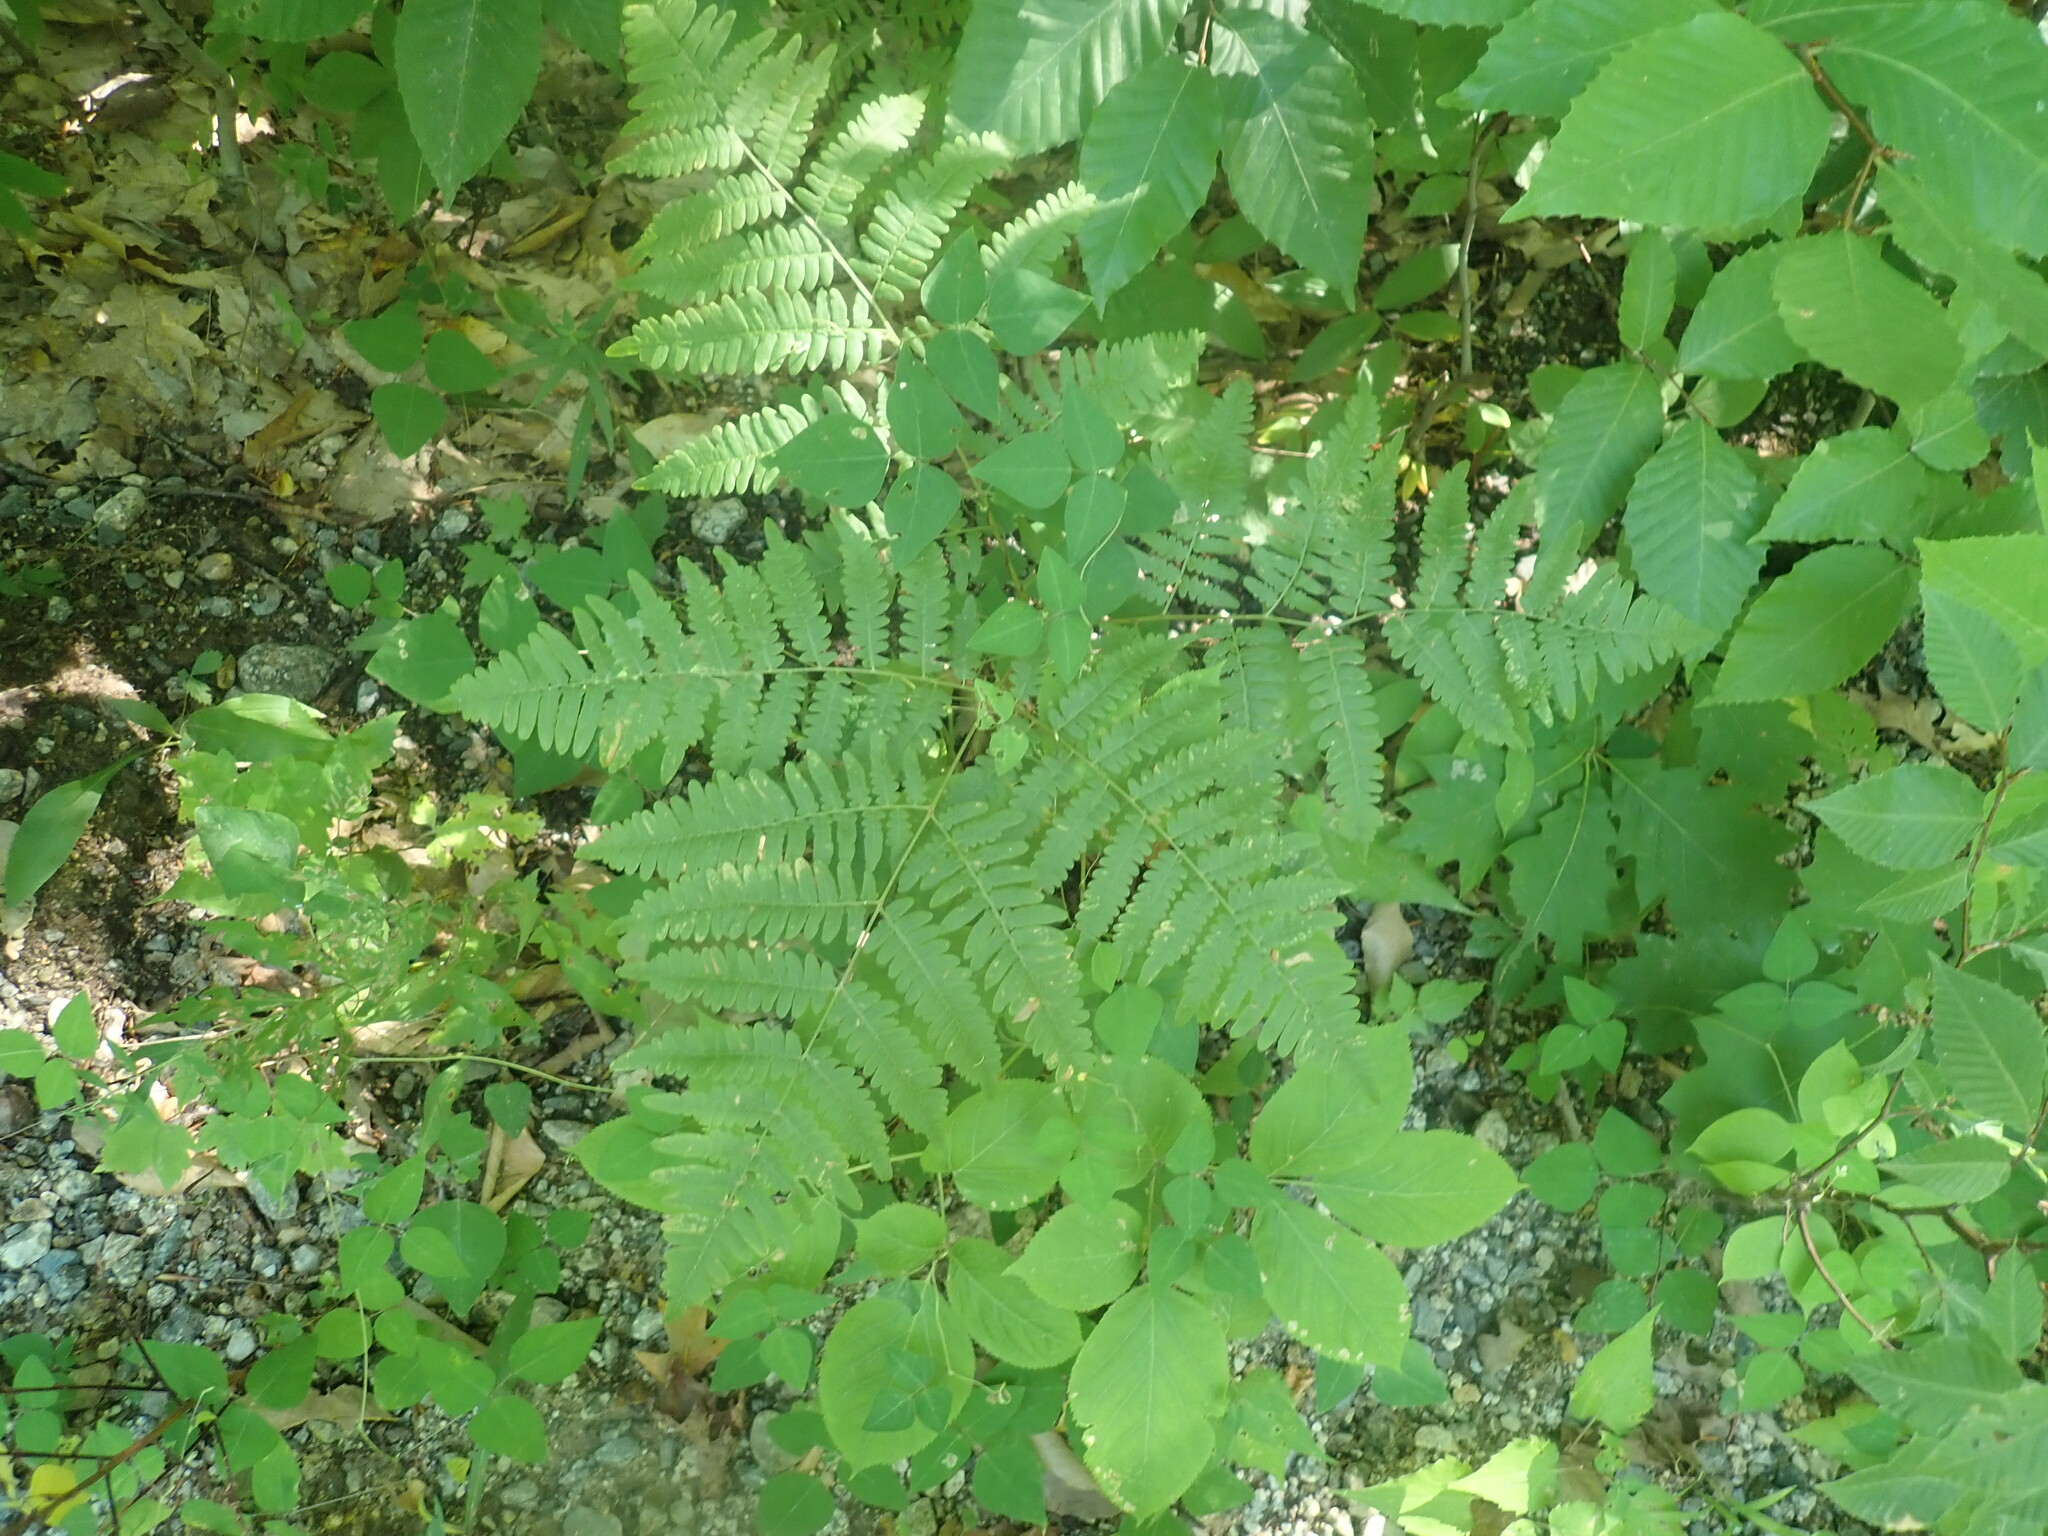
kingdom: Plantae
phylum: Tracheophyta
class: Polypodiopsida
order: Polypodiales
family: Dennstaedtiaceae
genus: Pteridium
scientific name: Pteridium aquilinum
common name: Bracken
